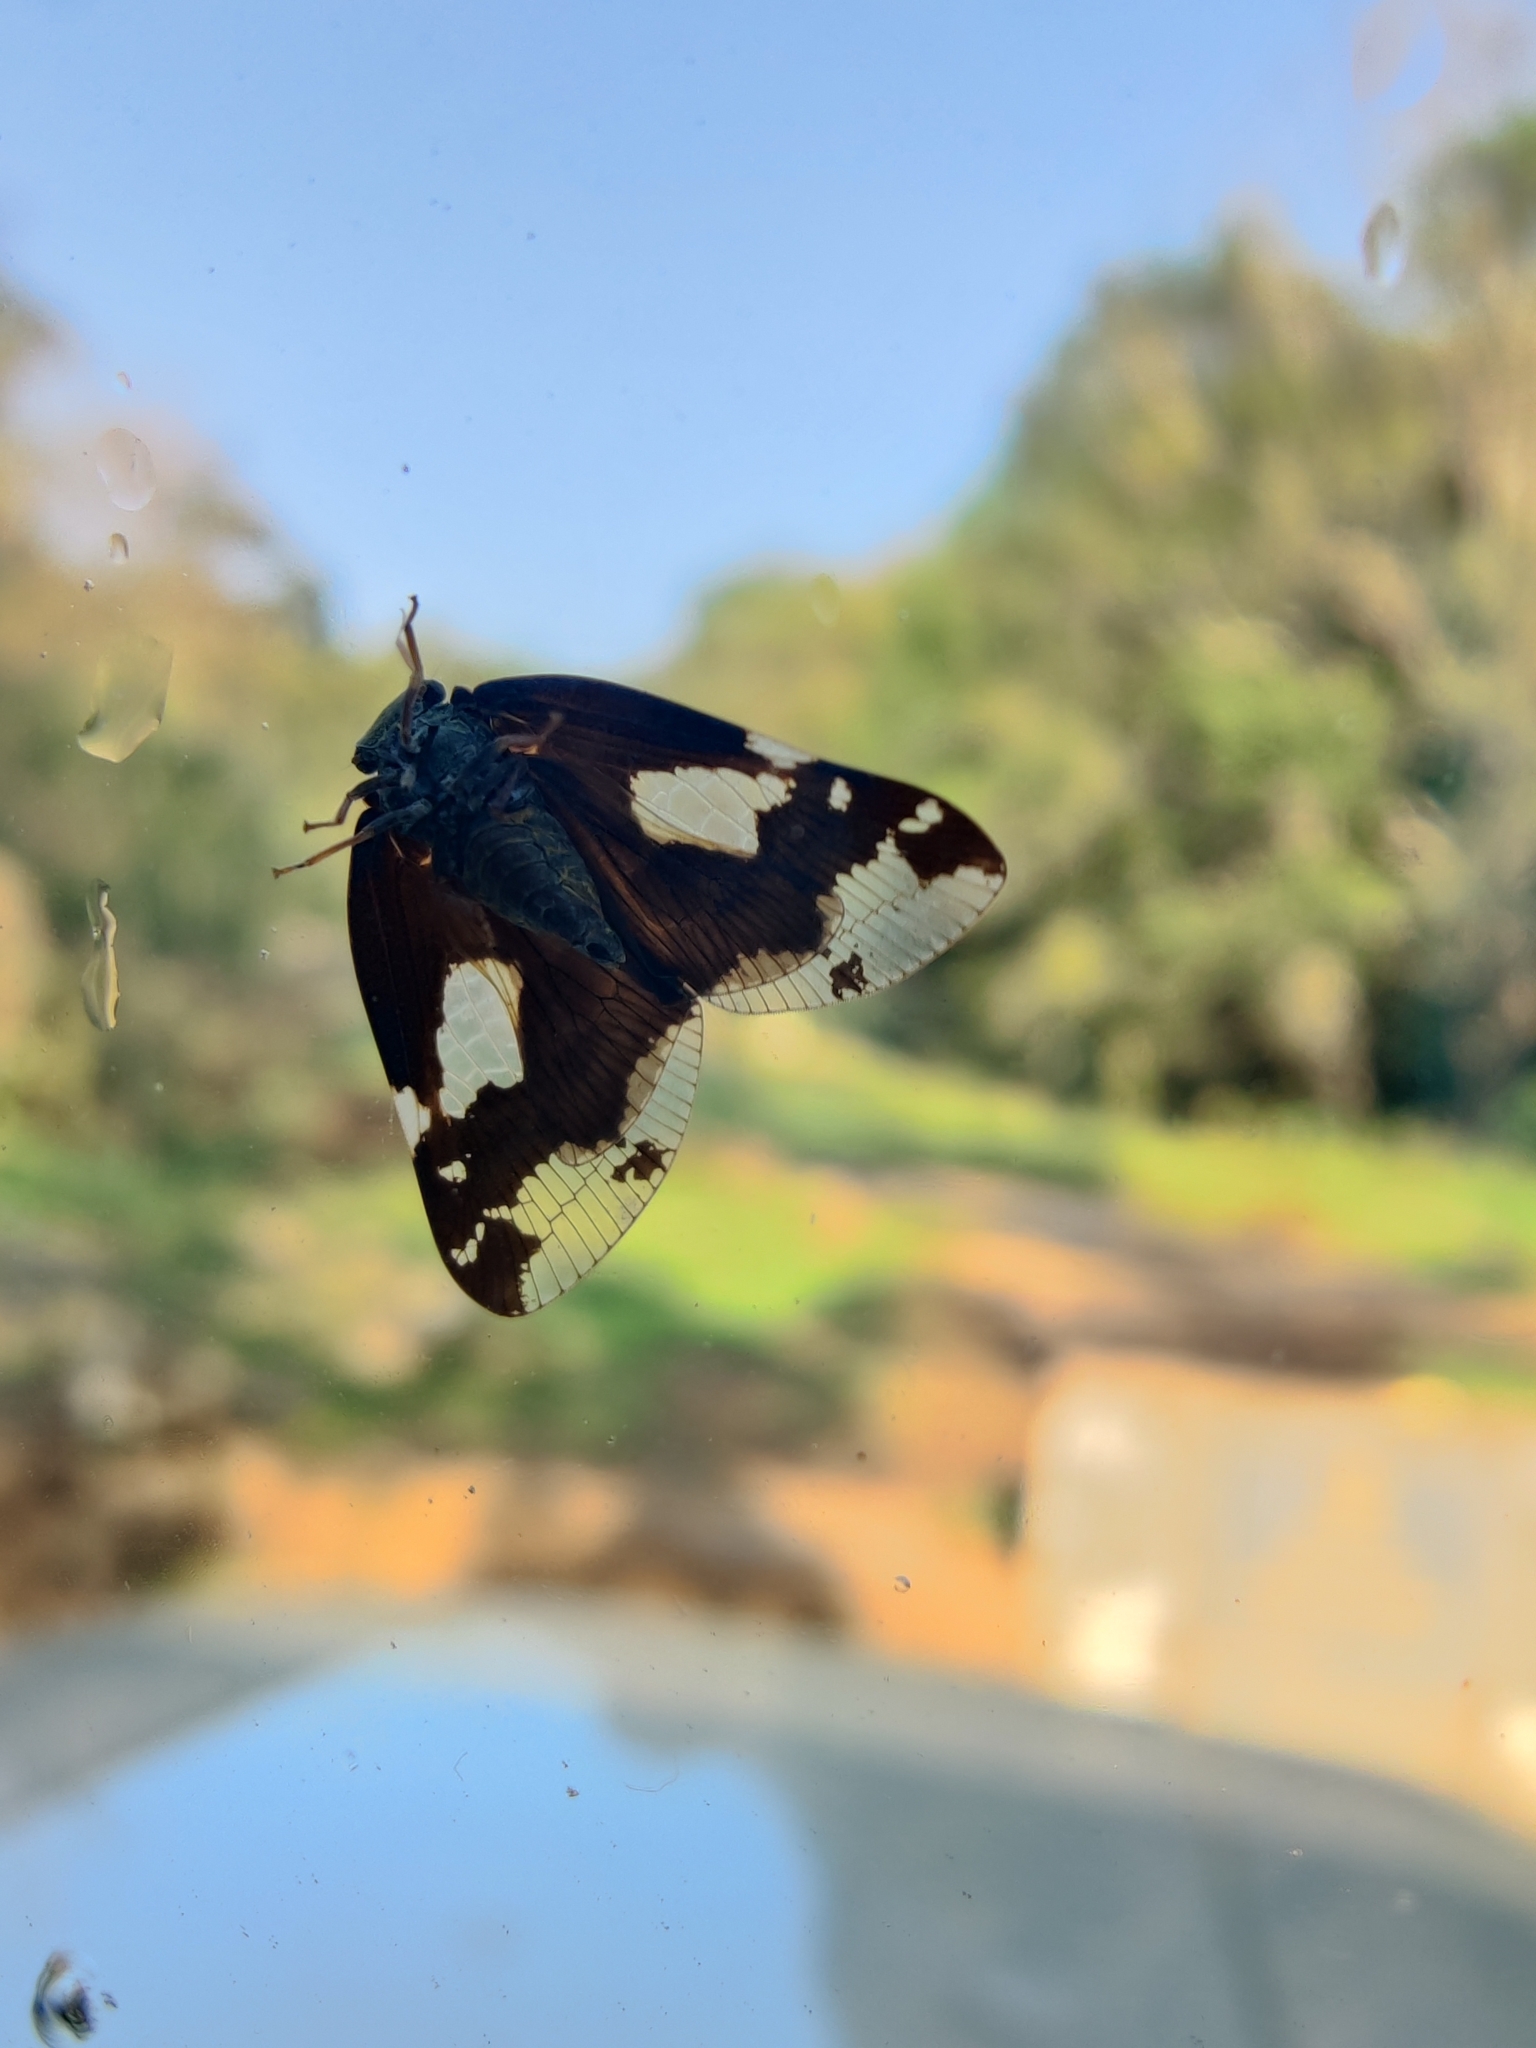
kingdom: Animalia
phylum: Arthropoda
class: Insecta
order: Hemiptera
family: Ricaniidae
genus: Ricania
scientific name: Ricania speculum
